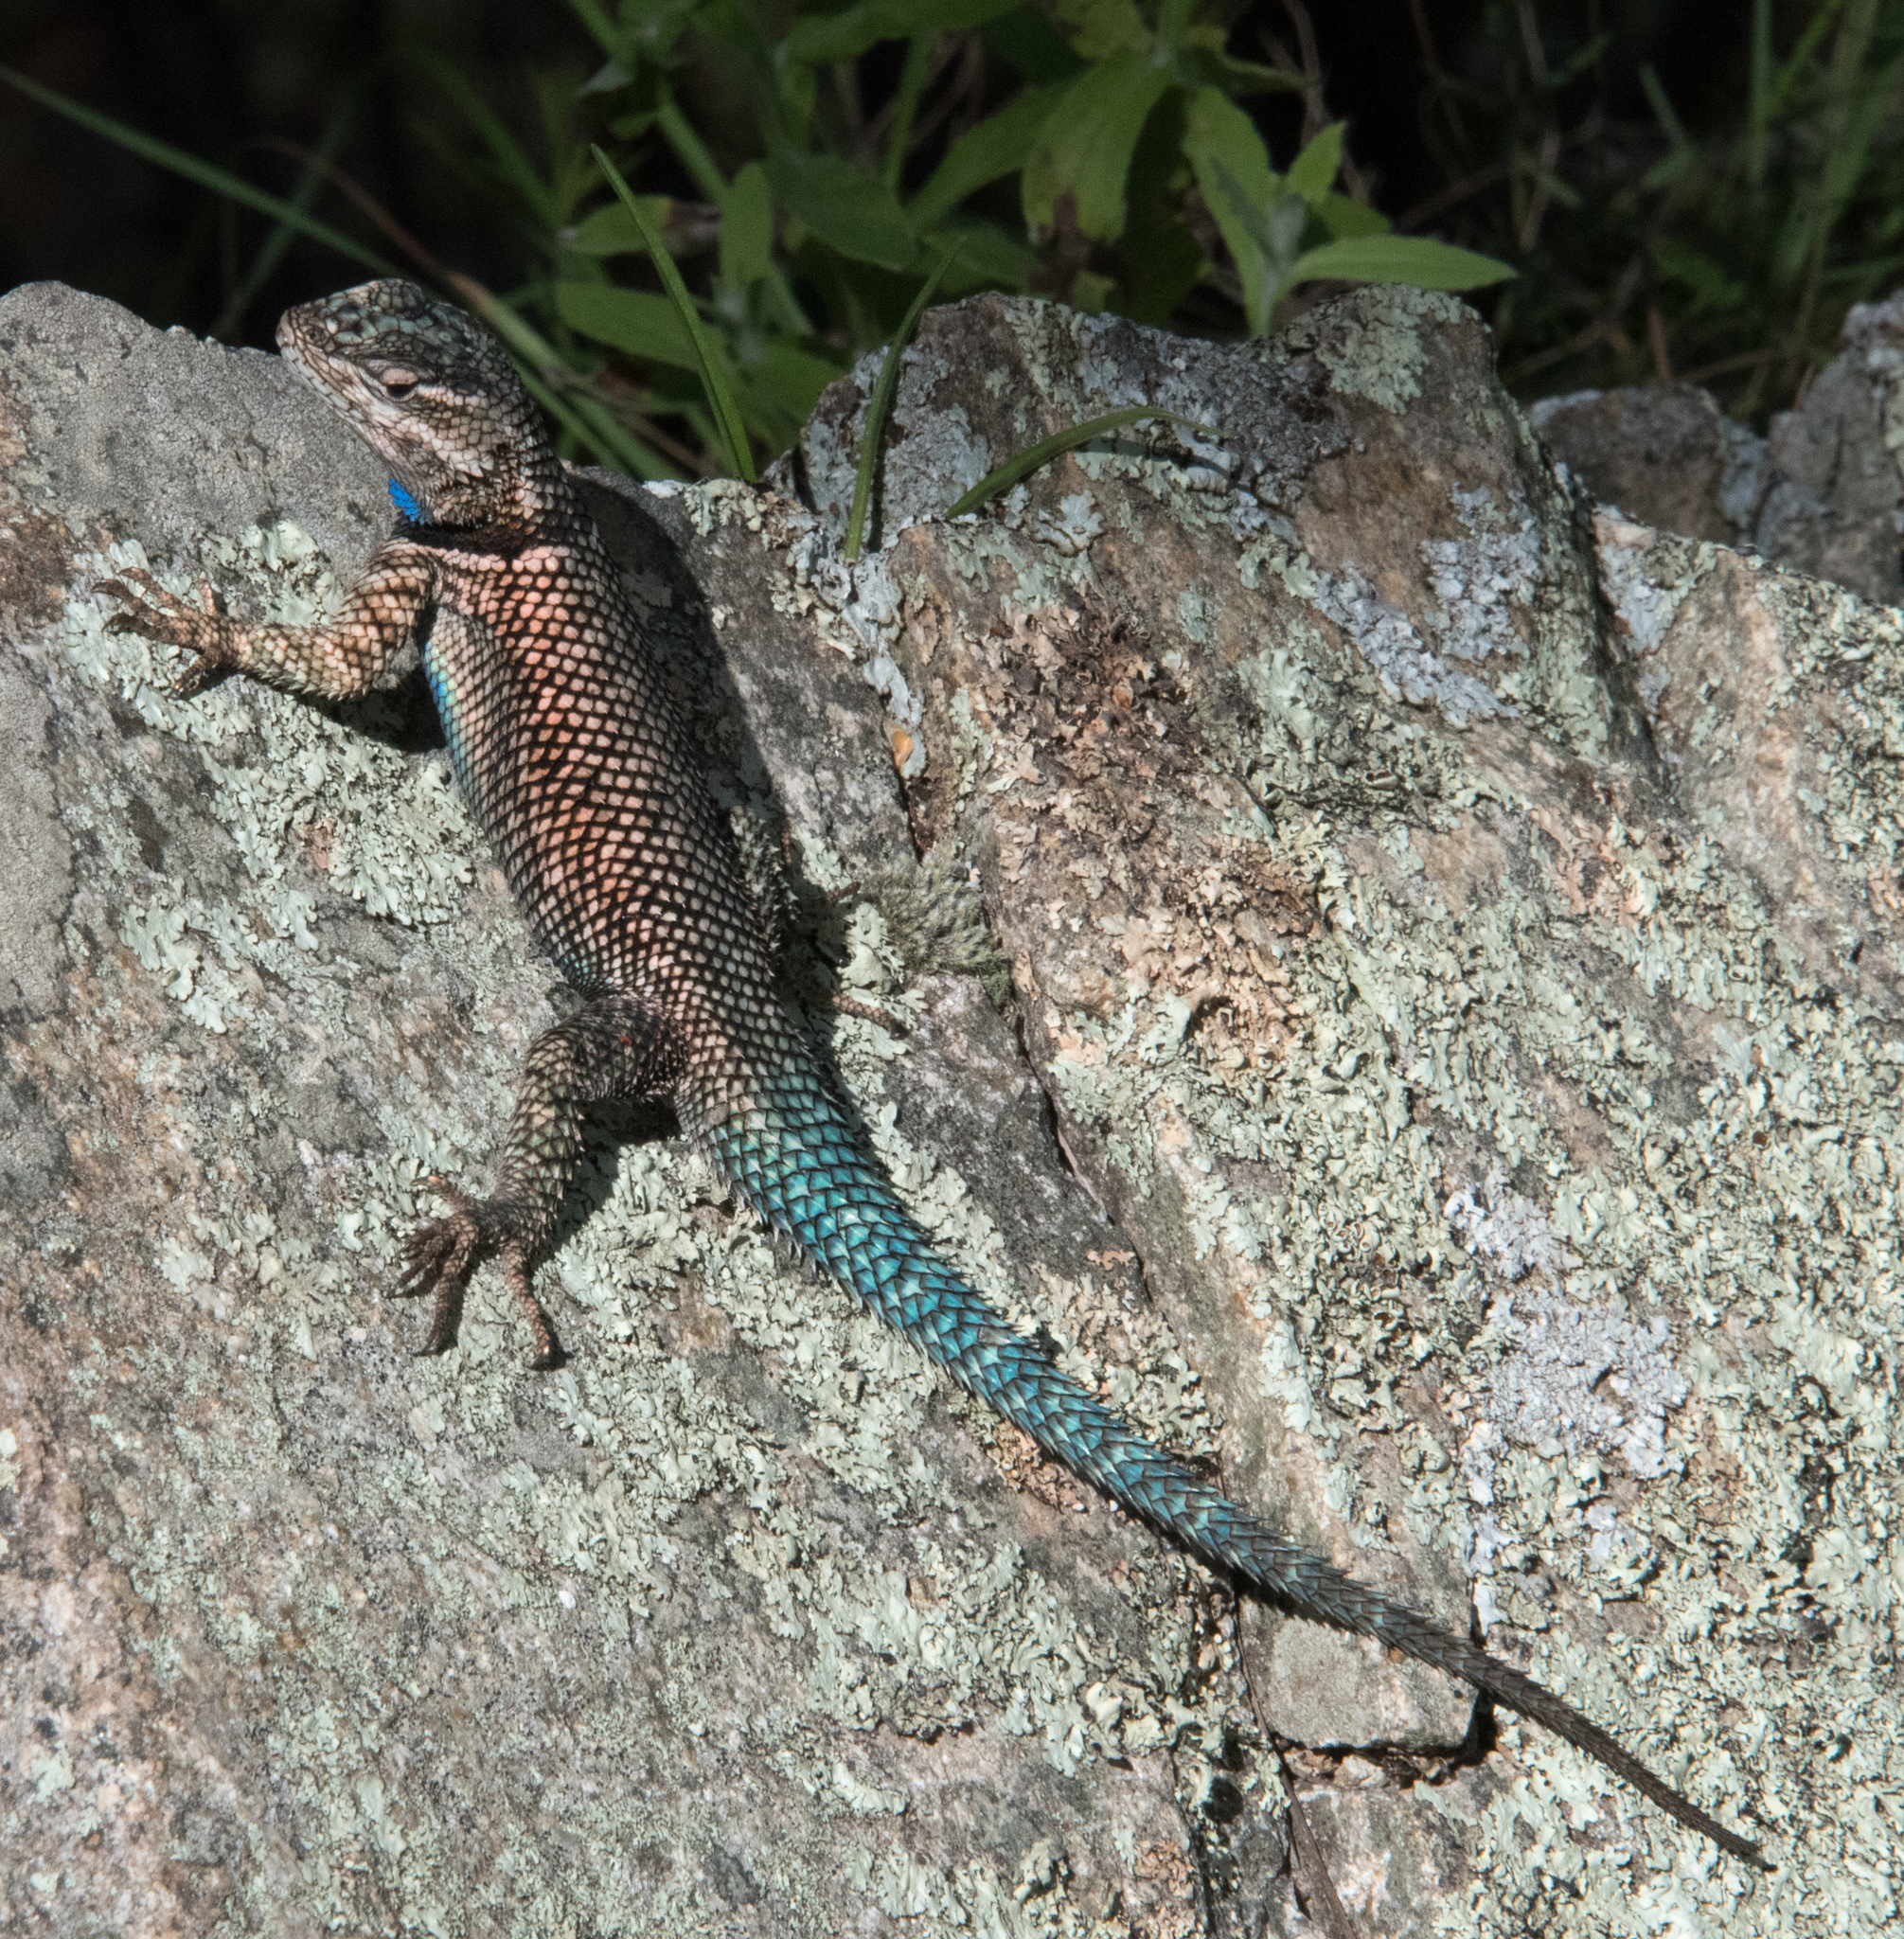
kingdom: Animalia
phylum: Chordata
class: Squamata
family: Phrynosomatidae
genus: Sceloporus
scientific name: Sceloporus jarrovii
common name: Yarrow's spiny lizard
